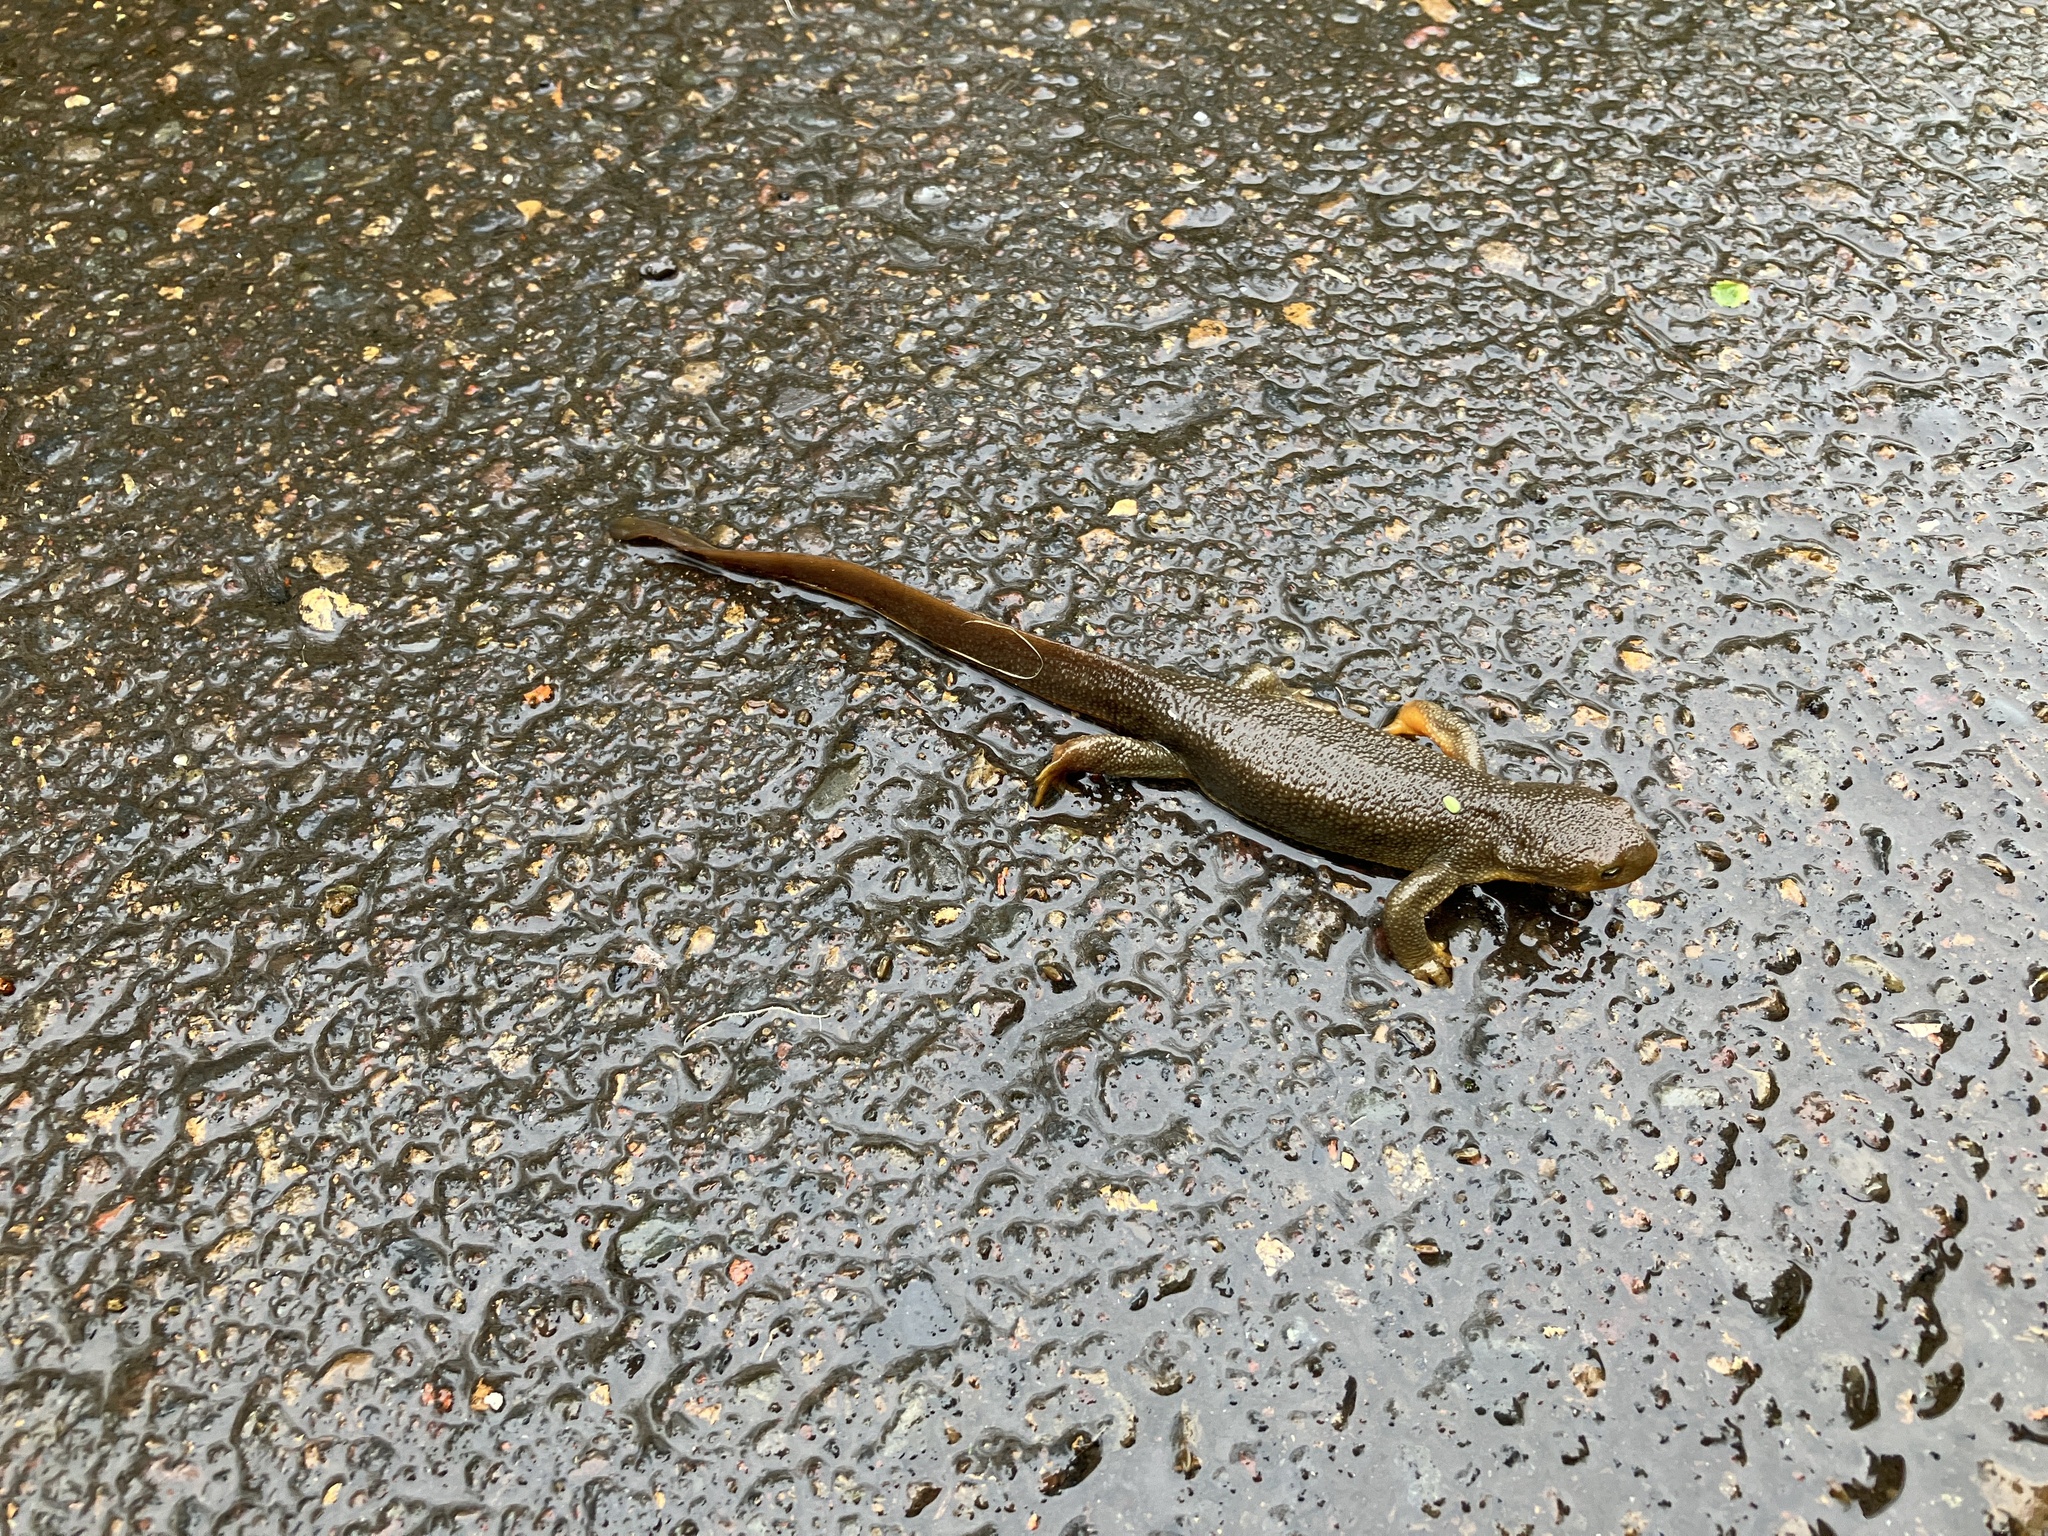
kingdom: Animalia
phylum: Chordata
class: Amphibia
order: Caudata
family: Salamandridae
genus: Taricha
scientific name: Taricha granulosa
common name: Roughskin newt
